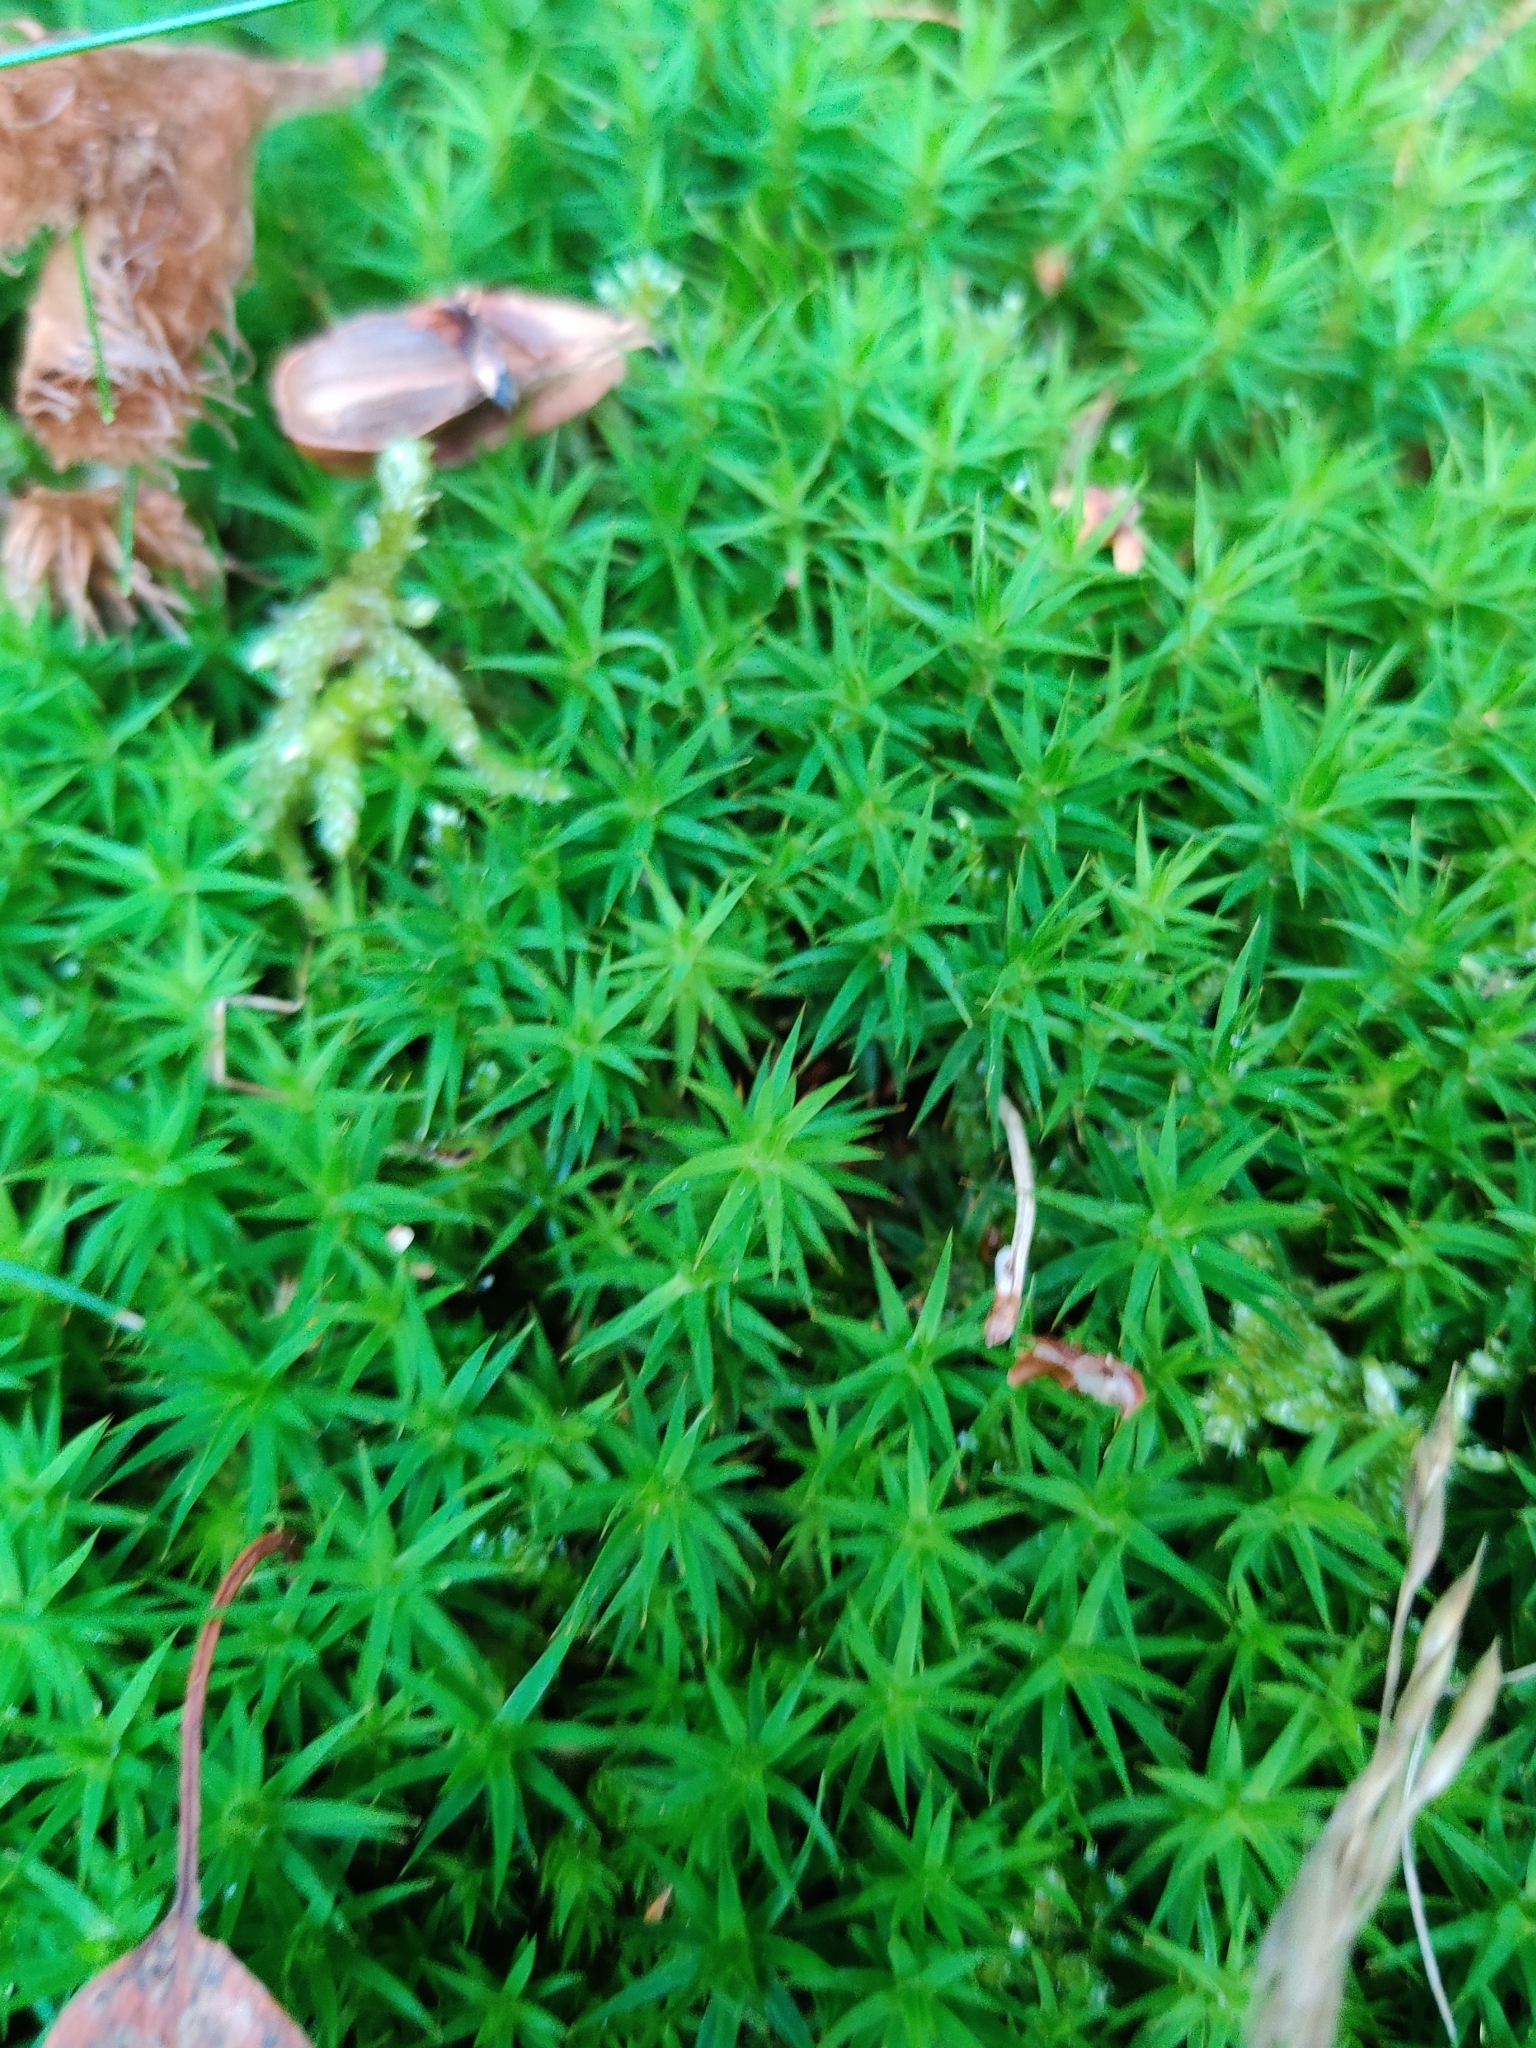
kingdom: Plantae
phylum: Bryophyta
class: Polytrichopsida
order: Polytrichales
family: Polytrichaceae
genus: Polytrichum
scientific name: Polytrichum formosum
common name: Bank haircap moss
